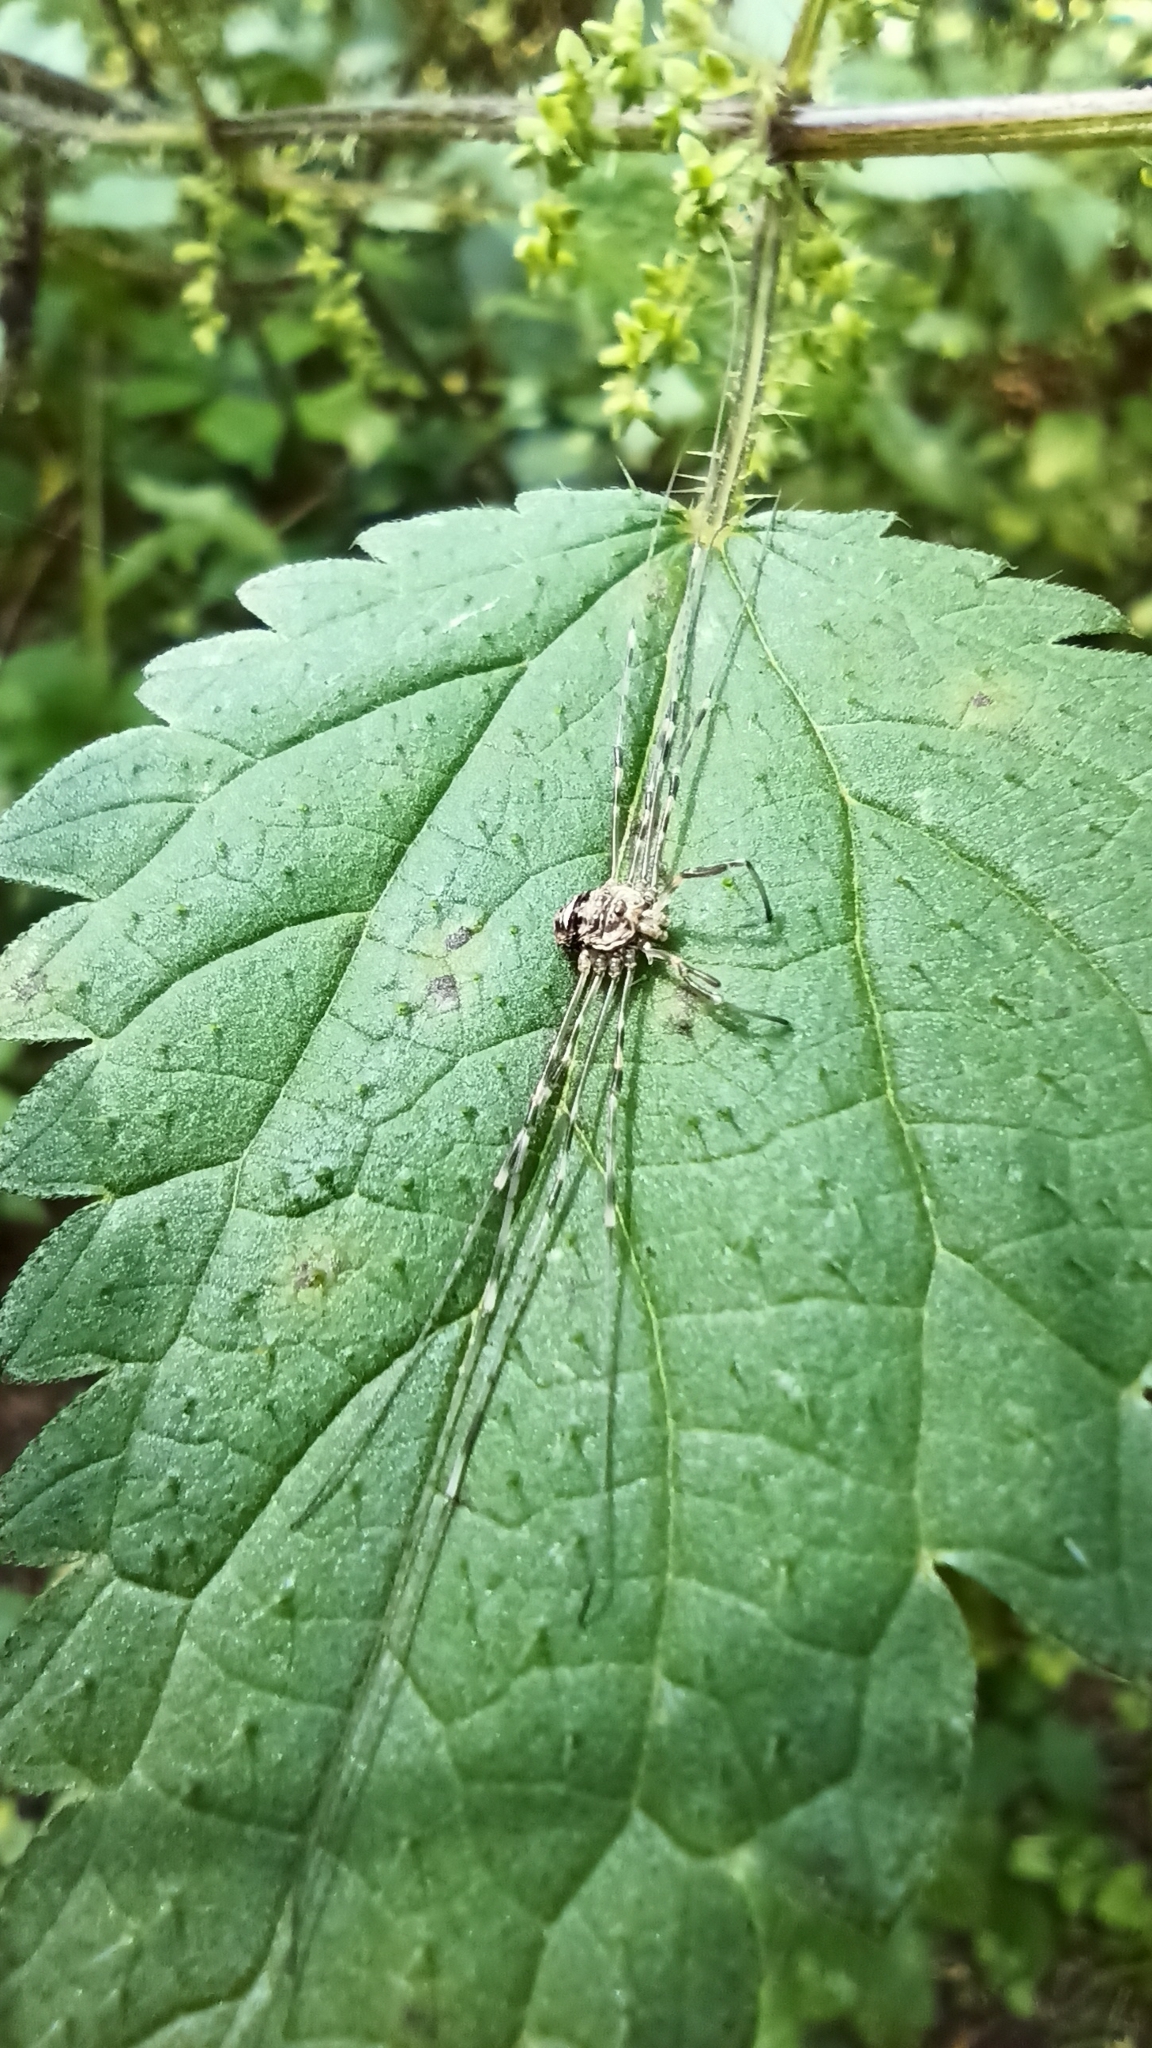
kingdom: Animalia
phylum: Arthropoda
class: Arachnida
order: Opiliones
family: Phalangiidae
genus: Dicranopalpus
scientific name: Dicranopalpus ramosus
